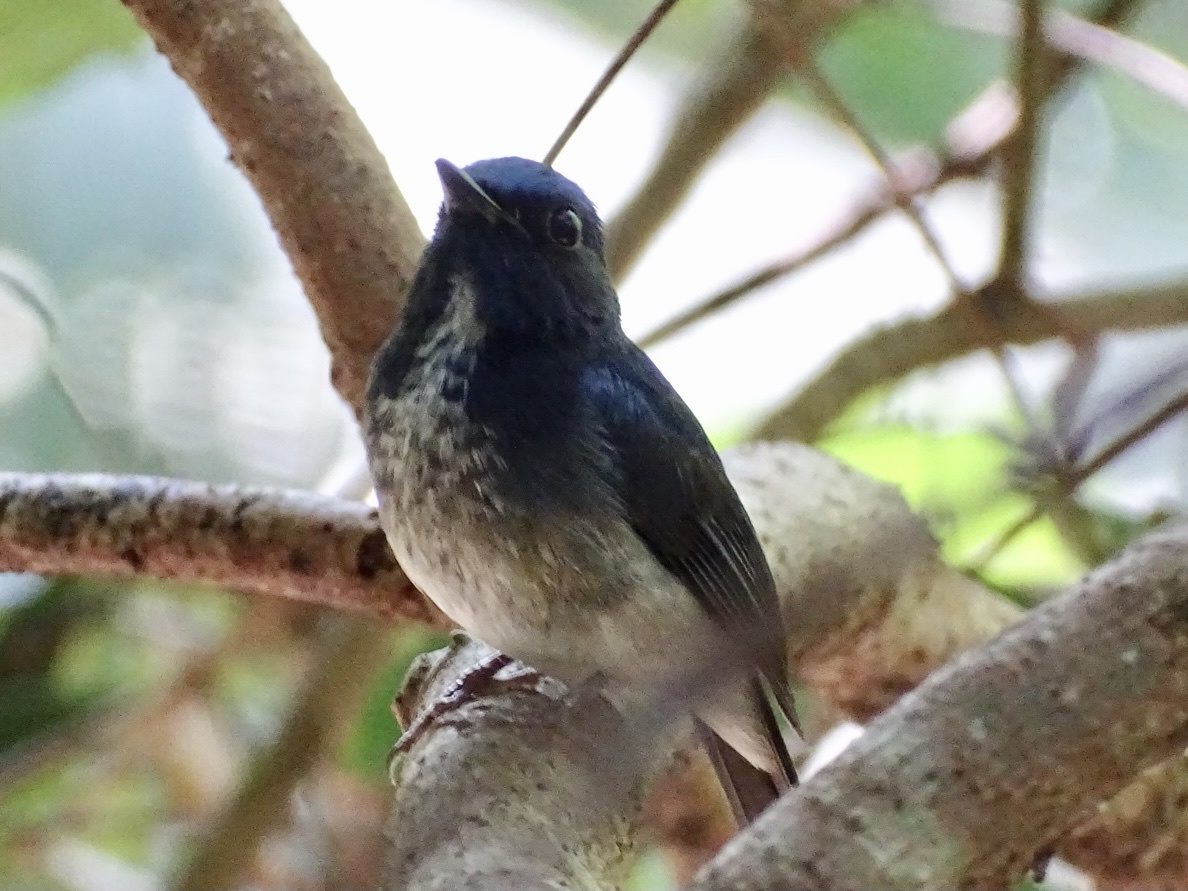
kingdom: Animalia
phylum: Chordata
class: Aves
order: Passeriformes
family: Muscicapidae
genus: Cyornis
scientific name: Cyornis hainanus
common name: Hainan blue flycatcher
